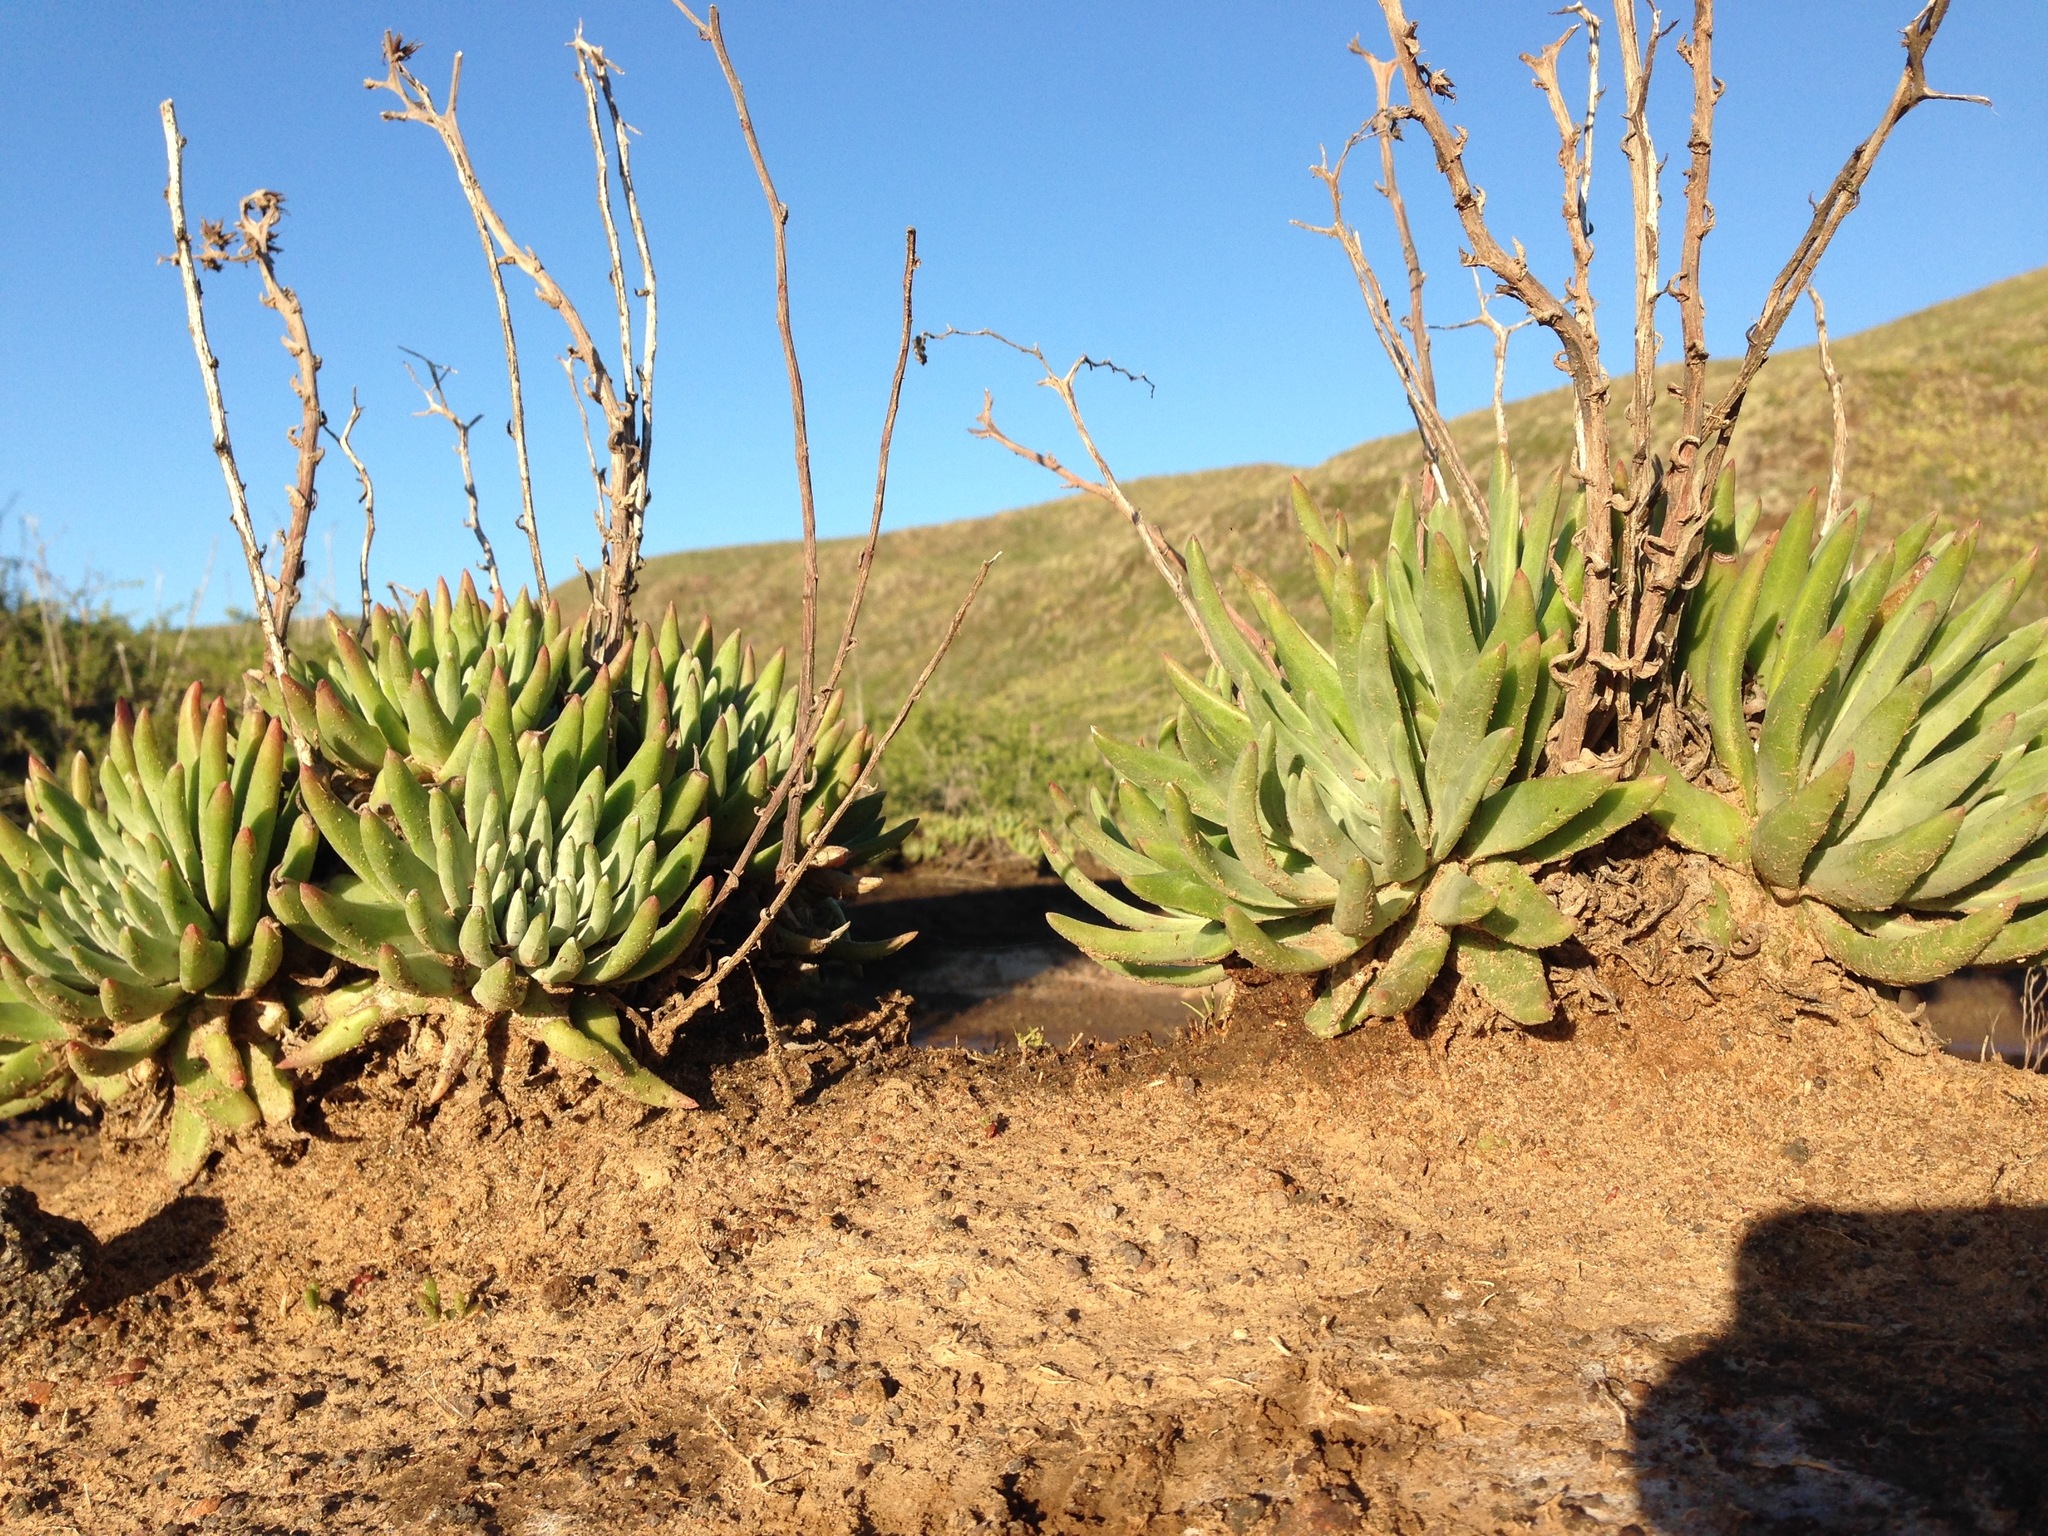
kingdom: Plantae
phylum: Tracheophyta
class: Magnoliopsida
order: Saxifragales
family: Crassulaceae
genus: Dudleya
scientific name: Dudleya virens
